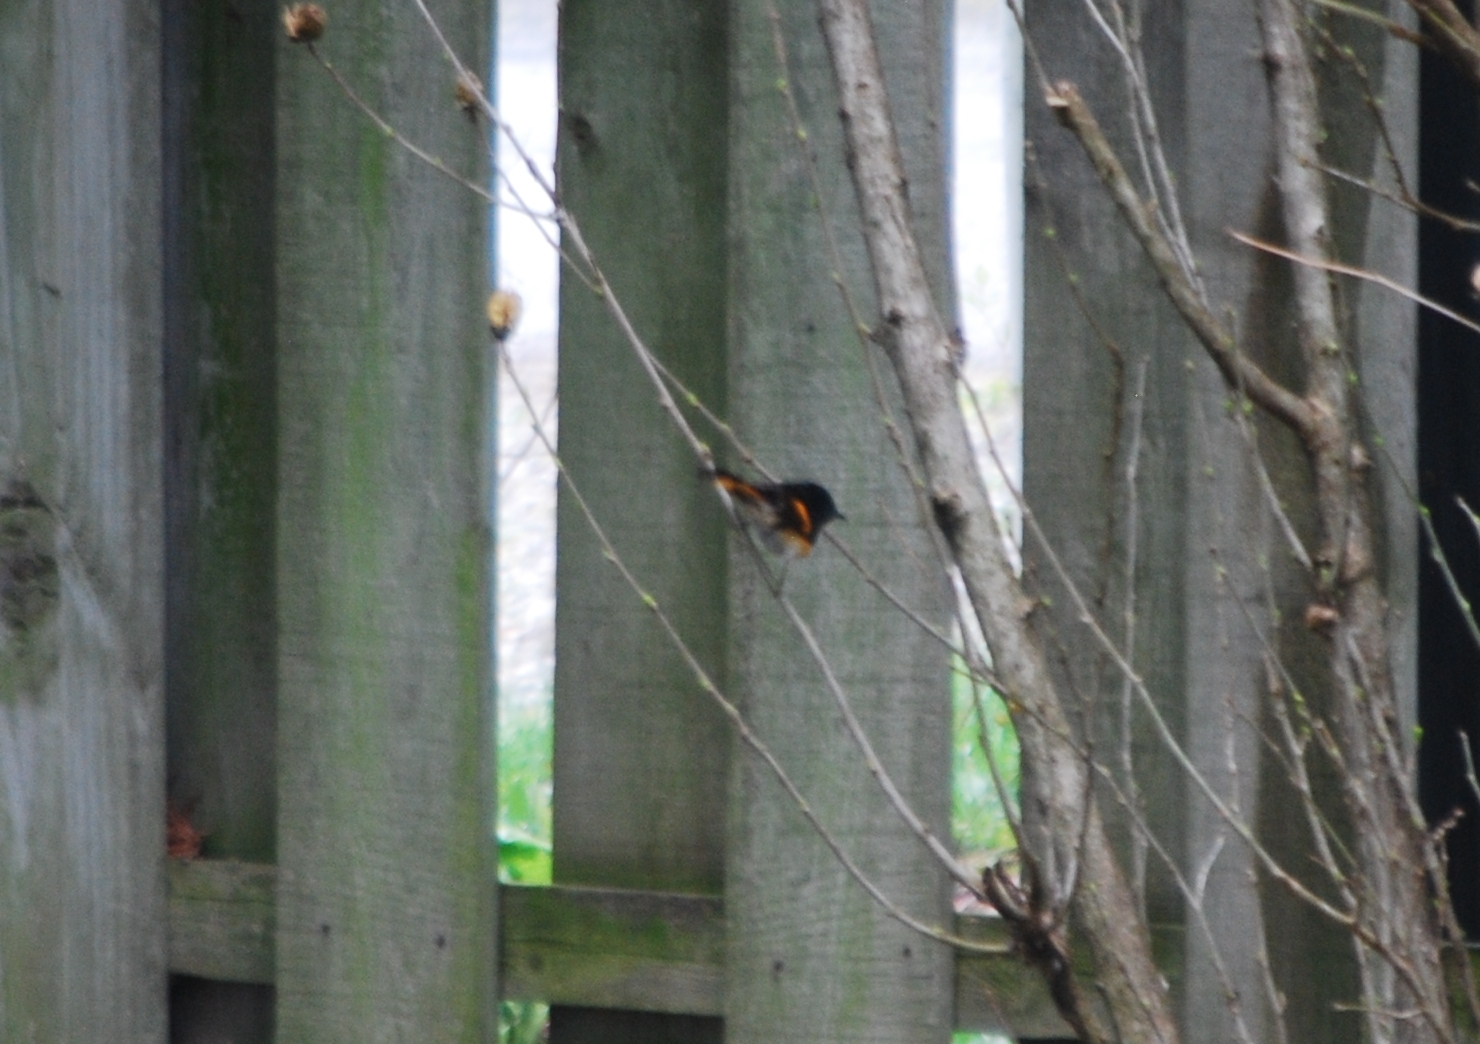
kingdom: Animalia
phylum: Chordata
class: Aves
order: Passeriformes
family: Parulidae
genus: Setophaga
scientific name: Setophaga ruticilla
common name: American redstart
